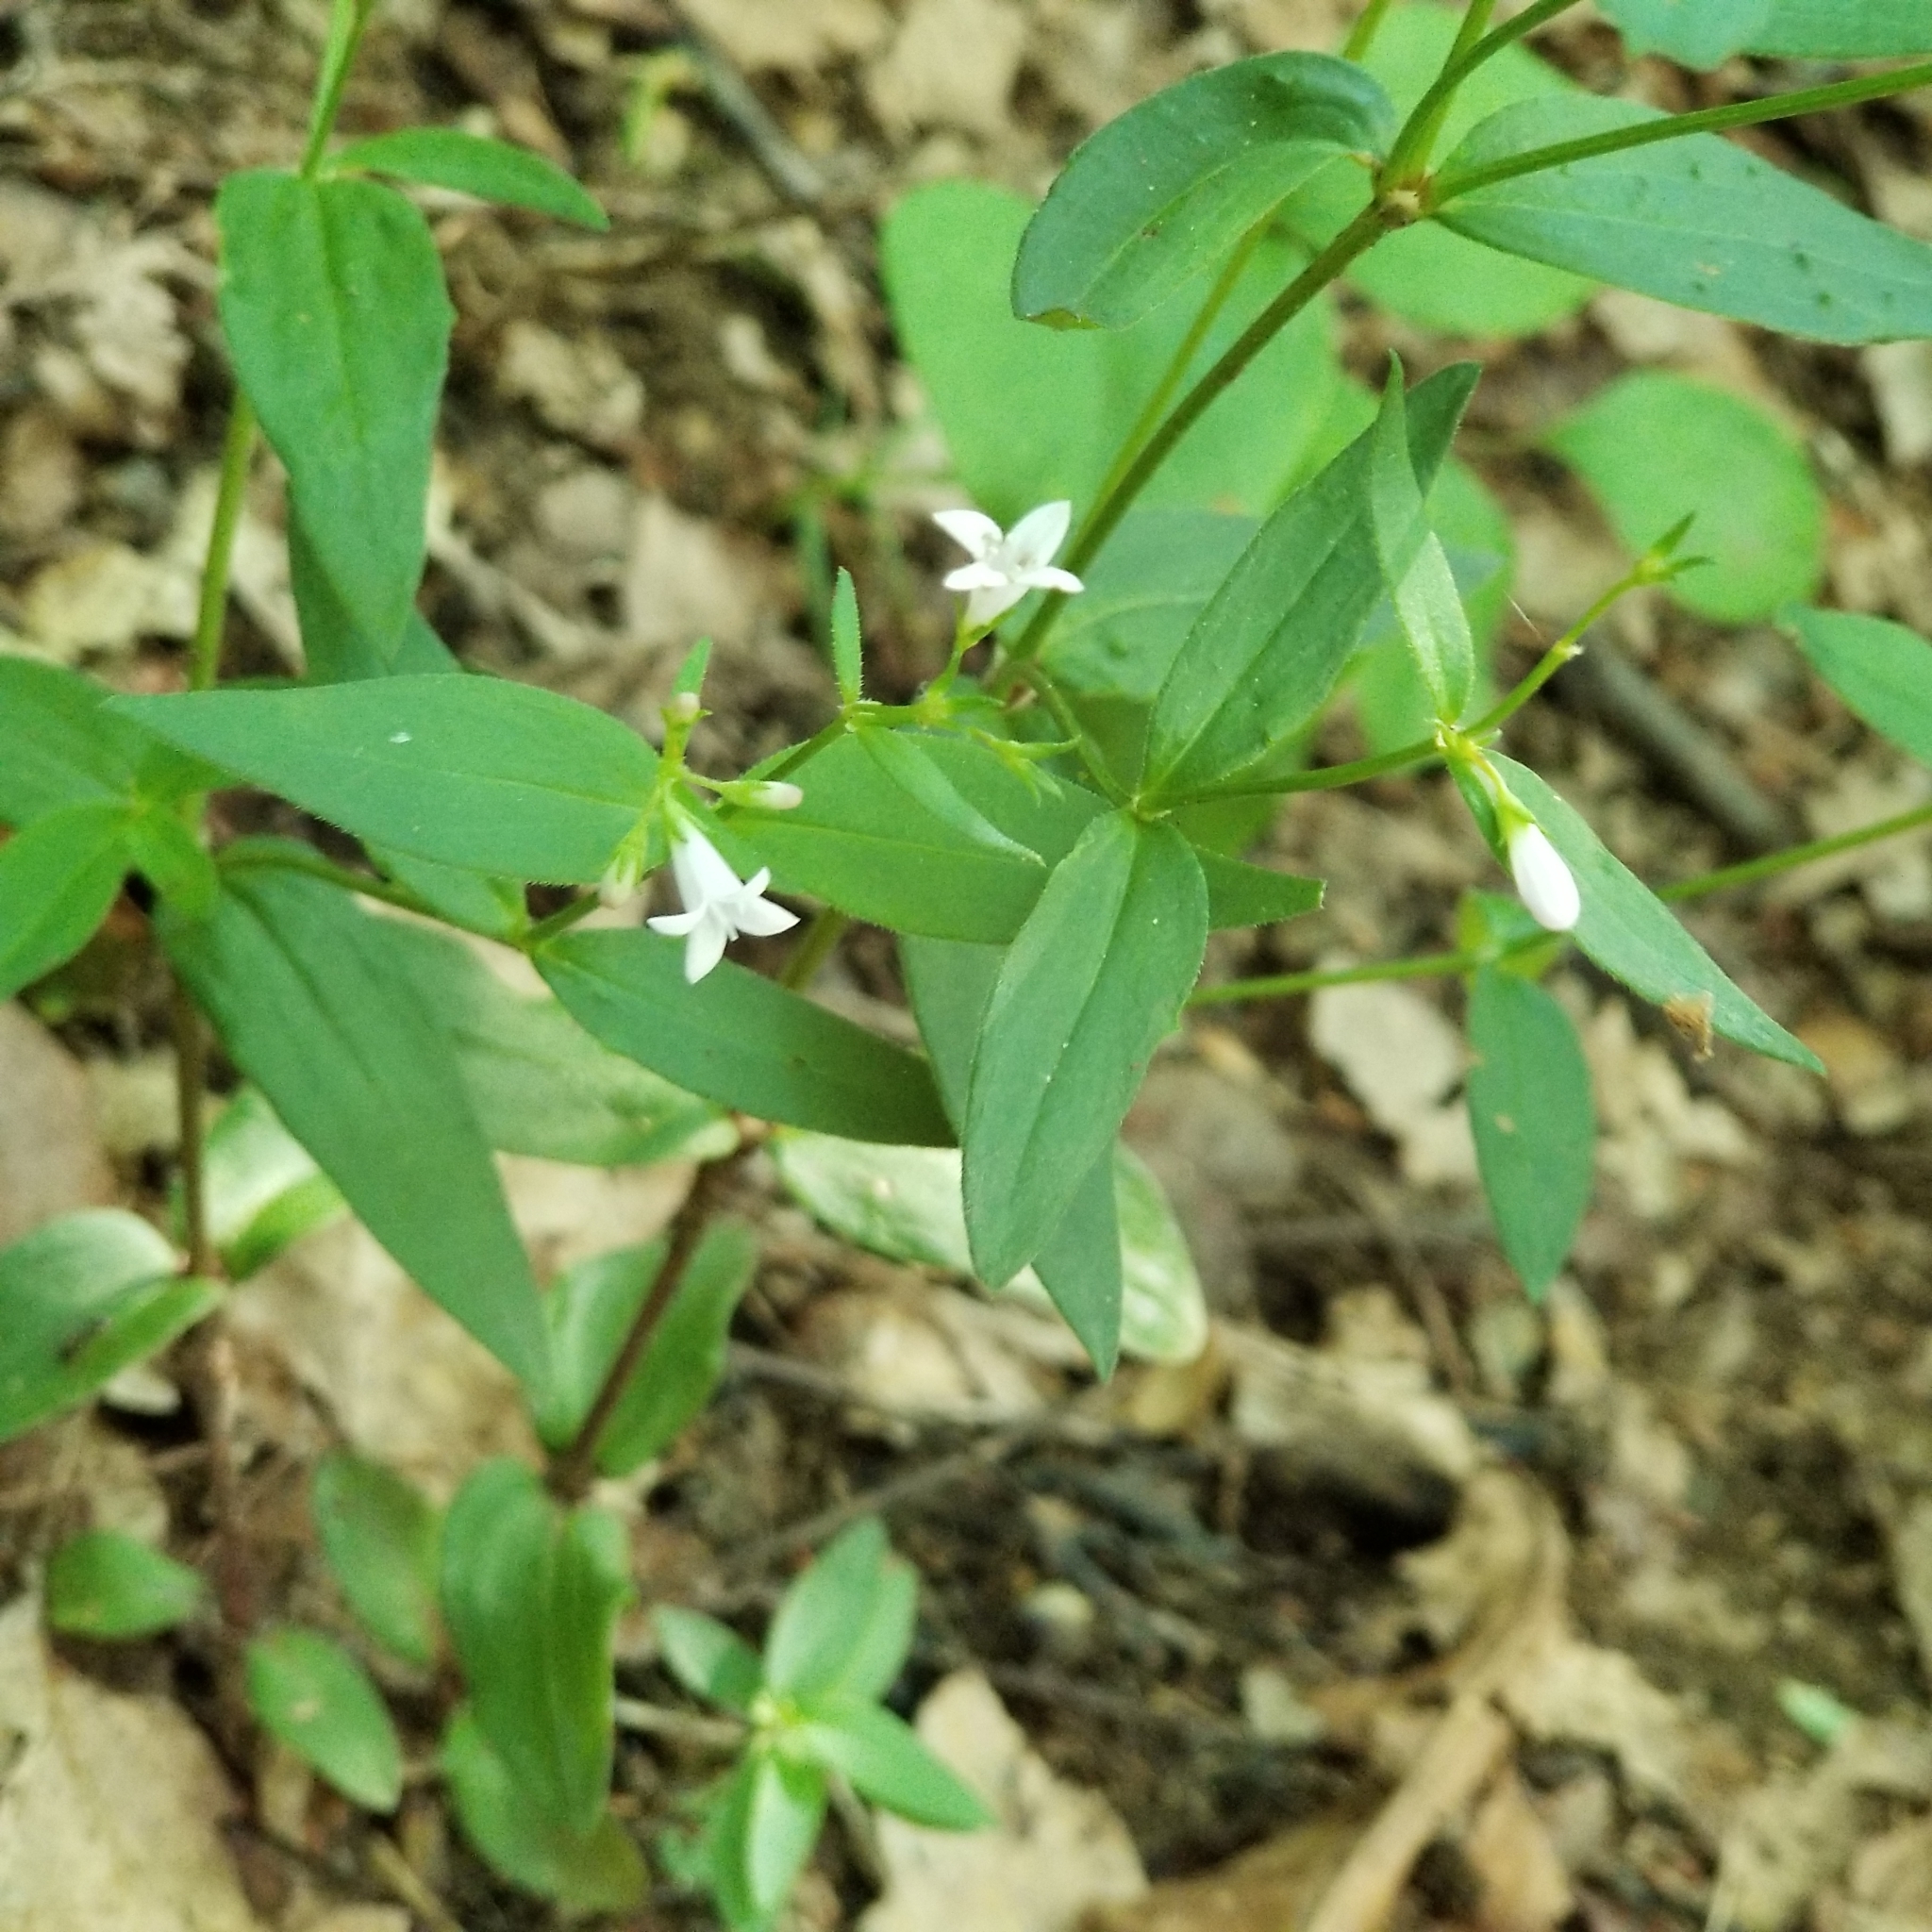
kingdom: Plantae
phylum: Tracheophyta
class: Magnoliopsida
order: Gentianales
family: Rubiaceae
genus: Houstonia
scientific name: Houstonia purpurea
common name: Summer bluet
